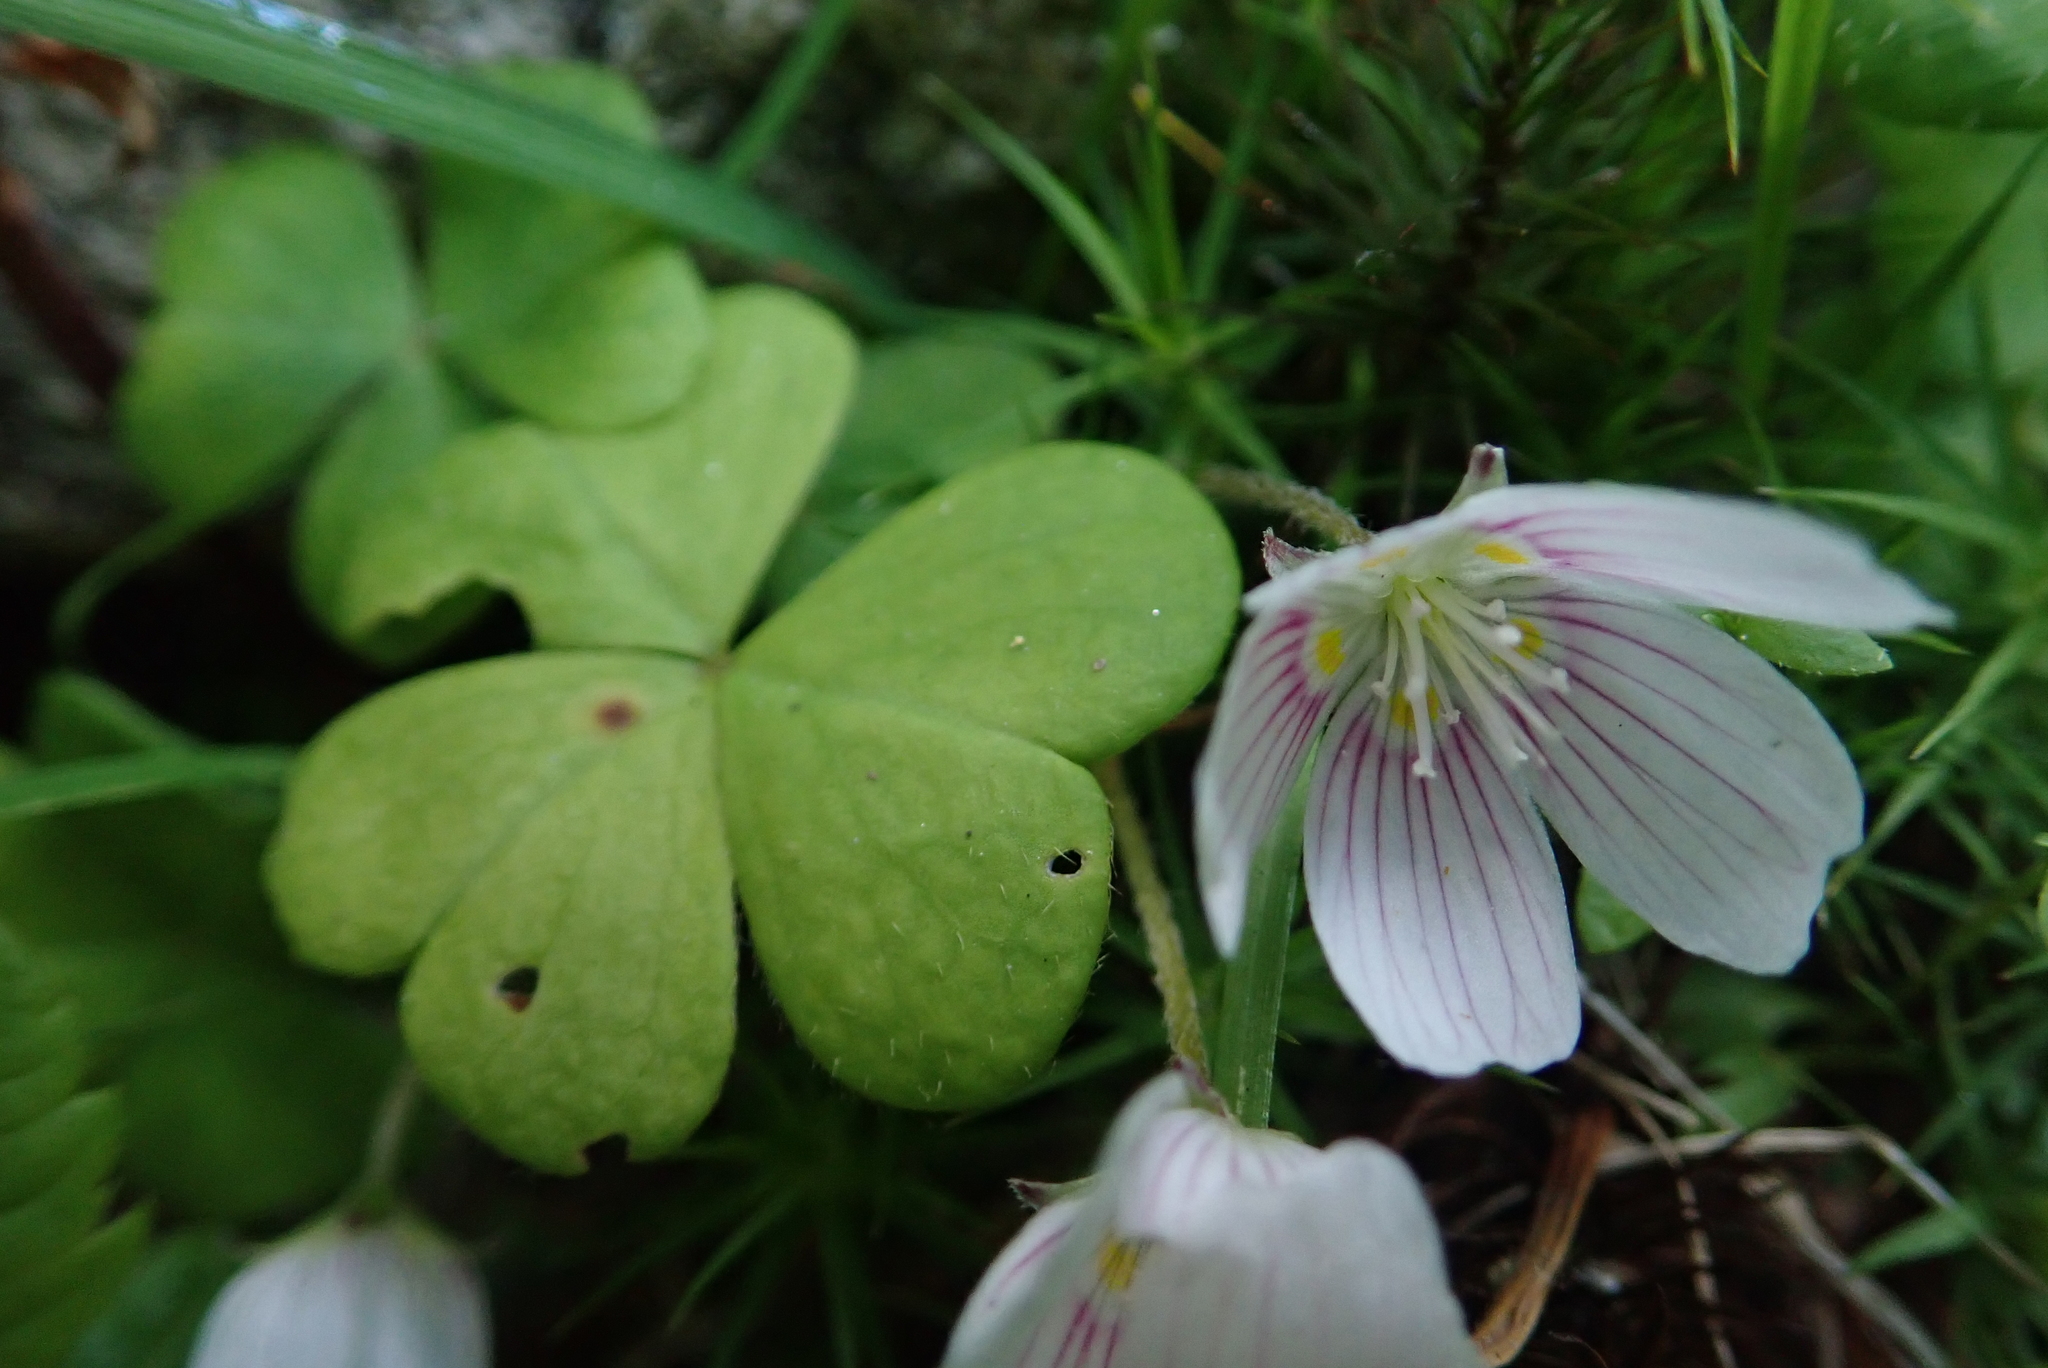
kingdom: Plantae
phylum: Tracheophyta
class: Magnoliopsida
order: Oxalidales
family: Oxalidaceae
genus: Oxalis
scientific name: Oxalis montana
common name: American wood-sorrel
